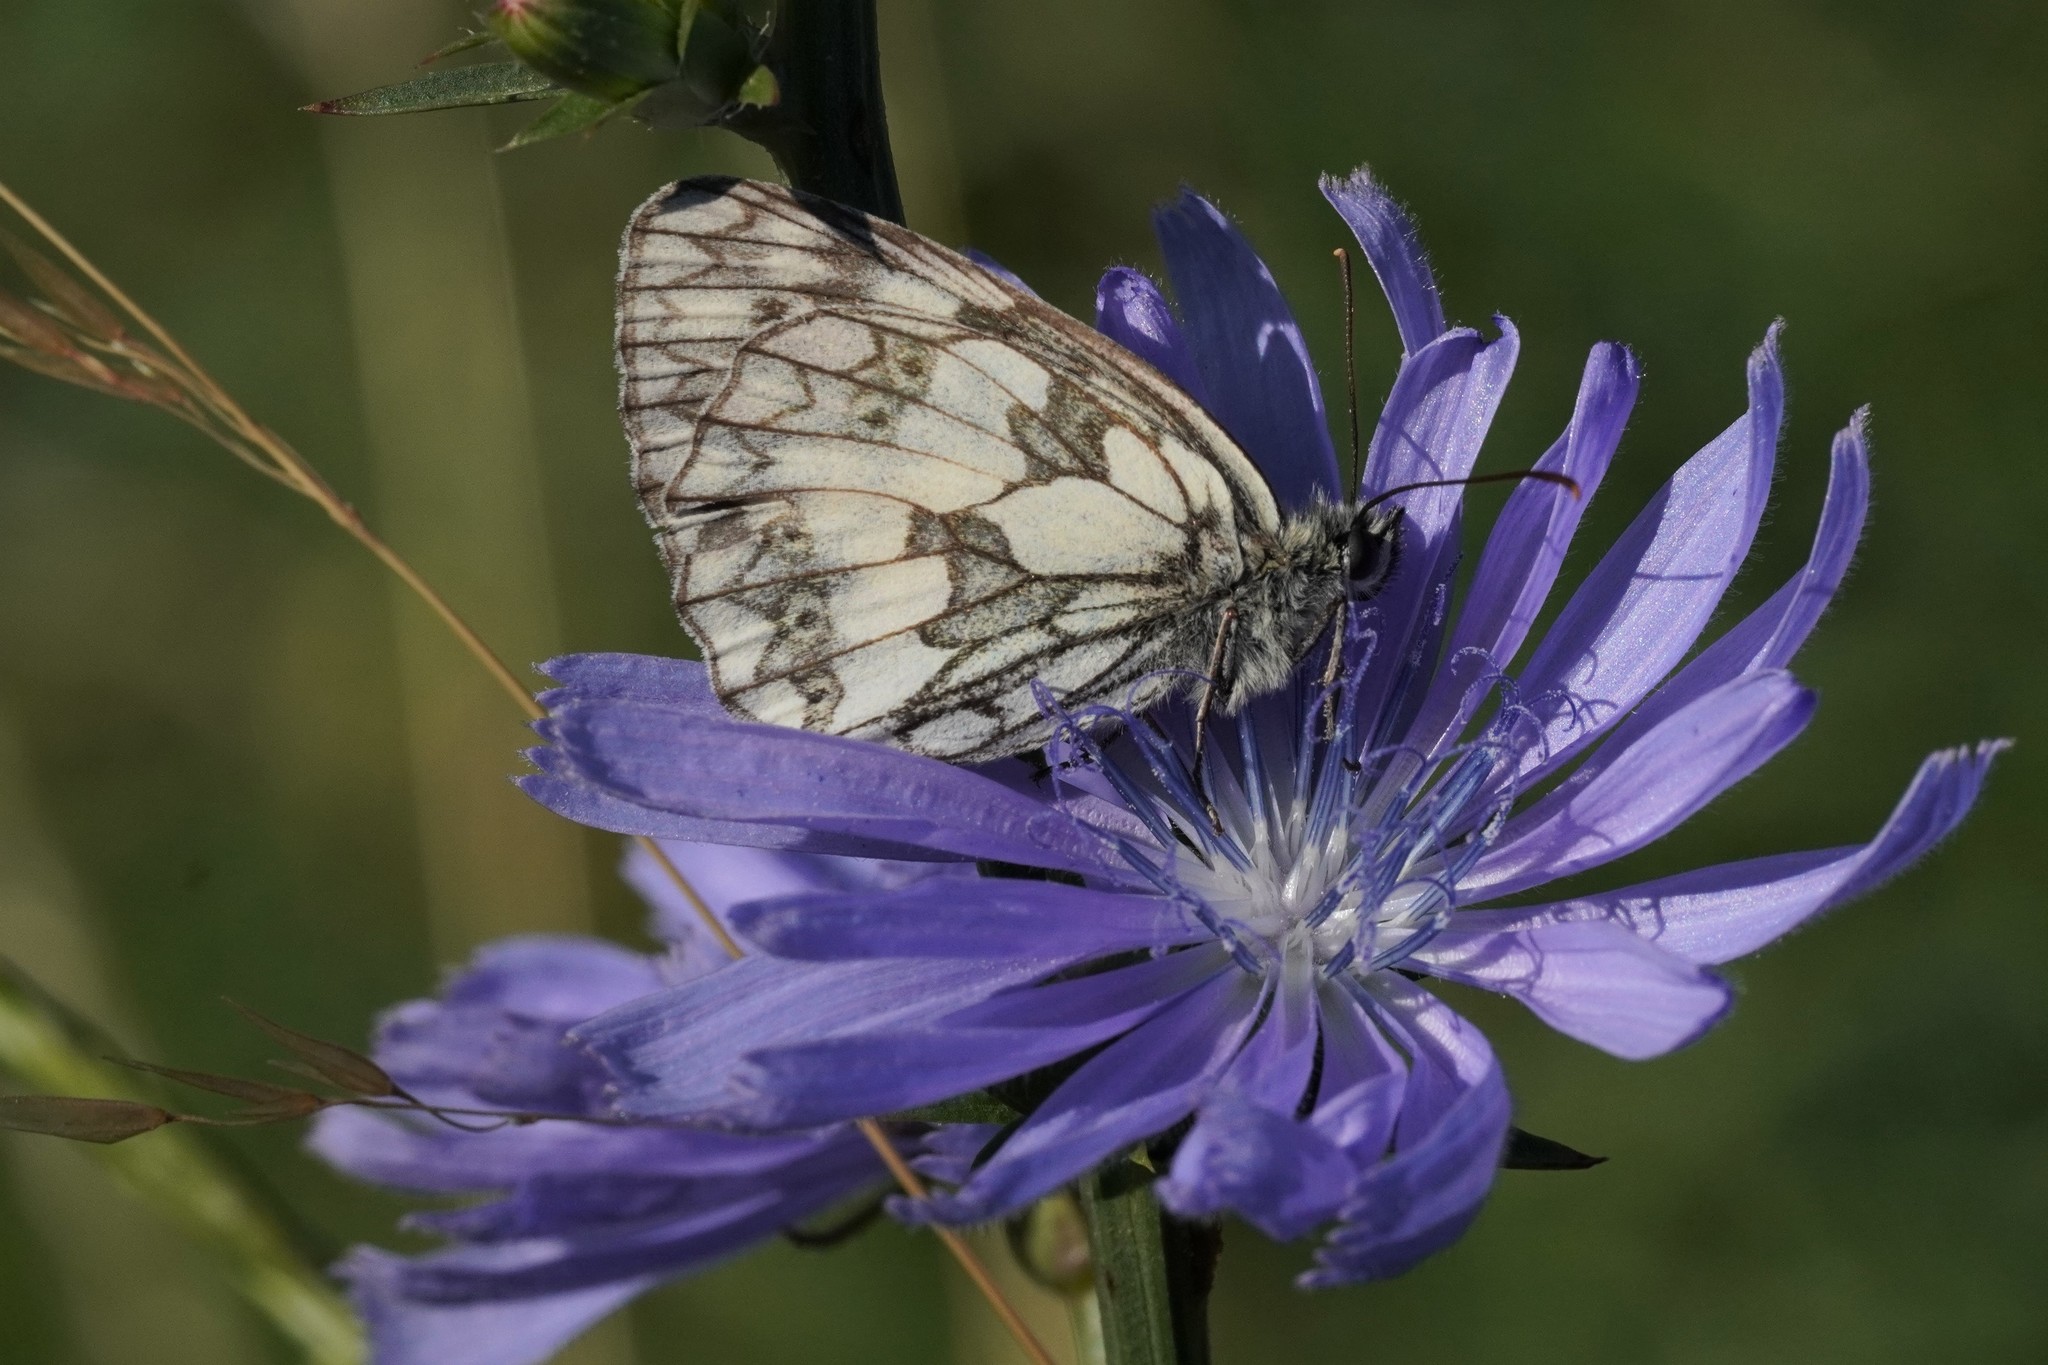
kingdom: Animalia
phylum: Arthropoda
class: Insecta
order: Lepidoptera
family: Nymphalidae
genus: Melanargia
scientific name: Melanargia galathea
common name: Marbled white
